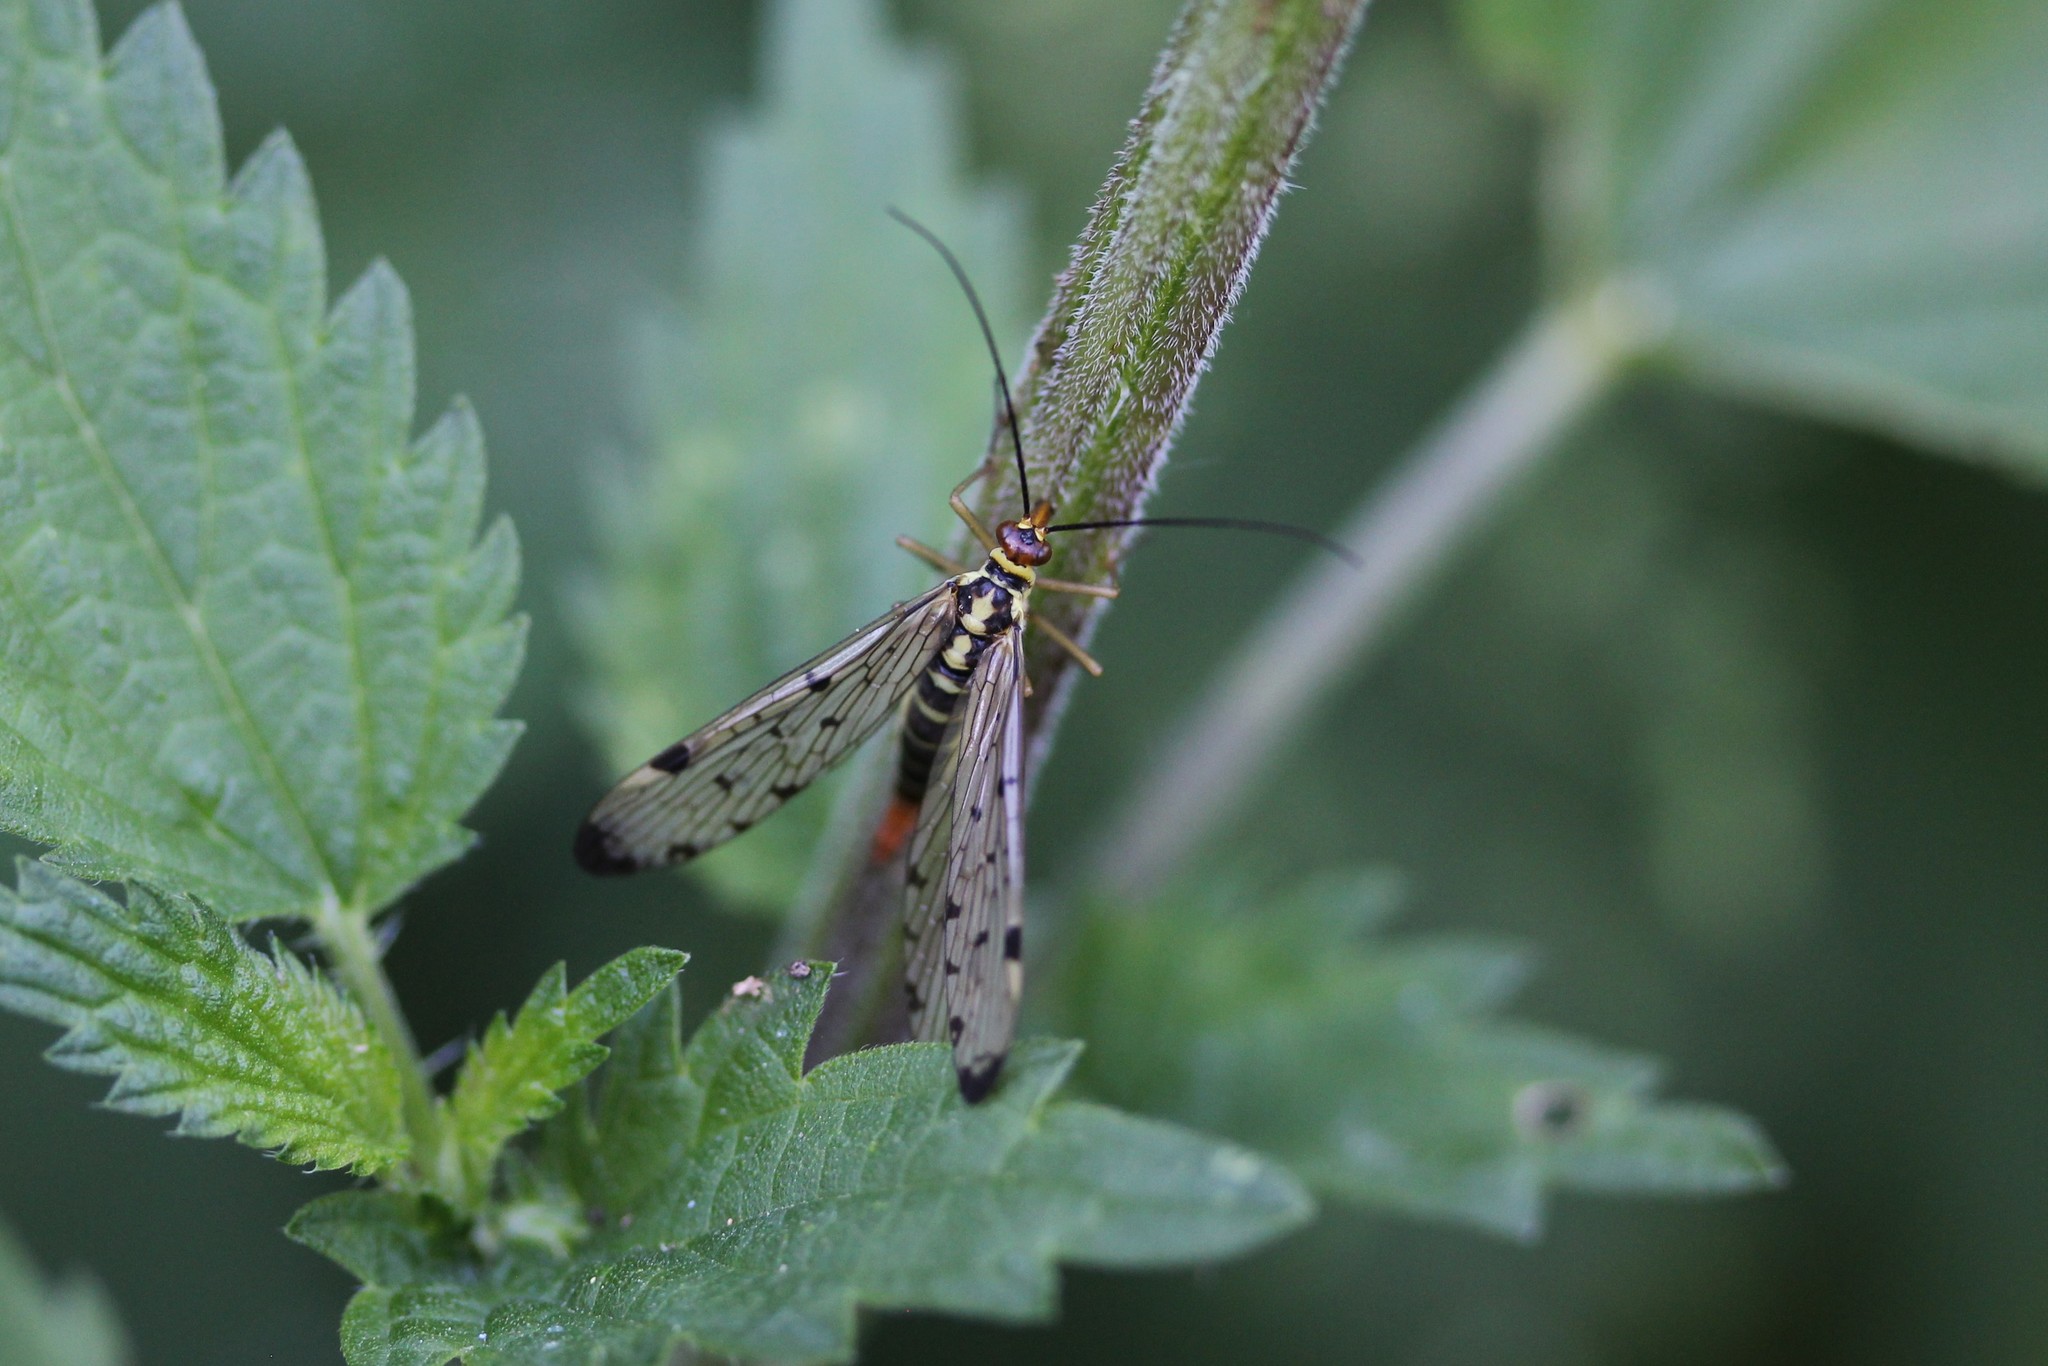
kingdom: Animalia
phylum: Arthropoda
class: Insecta
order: Mecoptera
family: Panorpidae
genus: Panorpa
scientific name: Panorpa germanica
